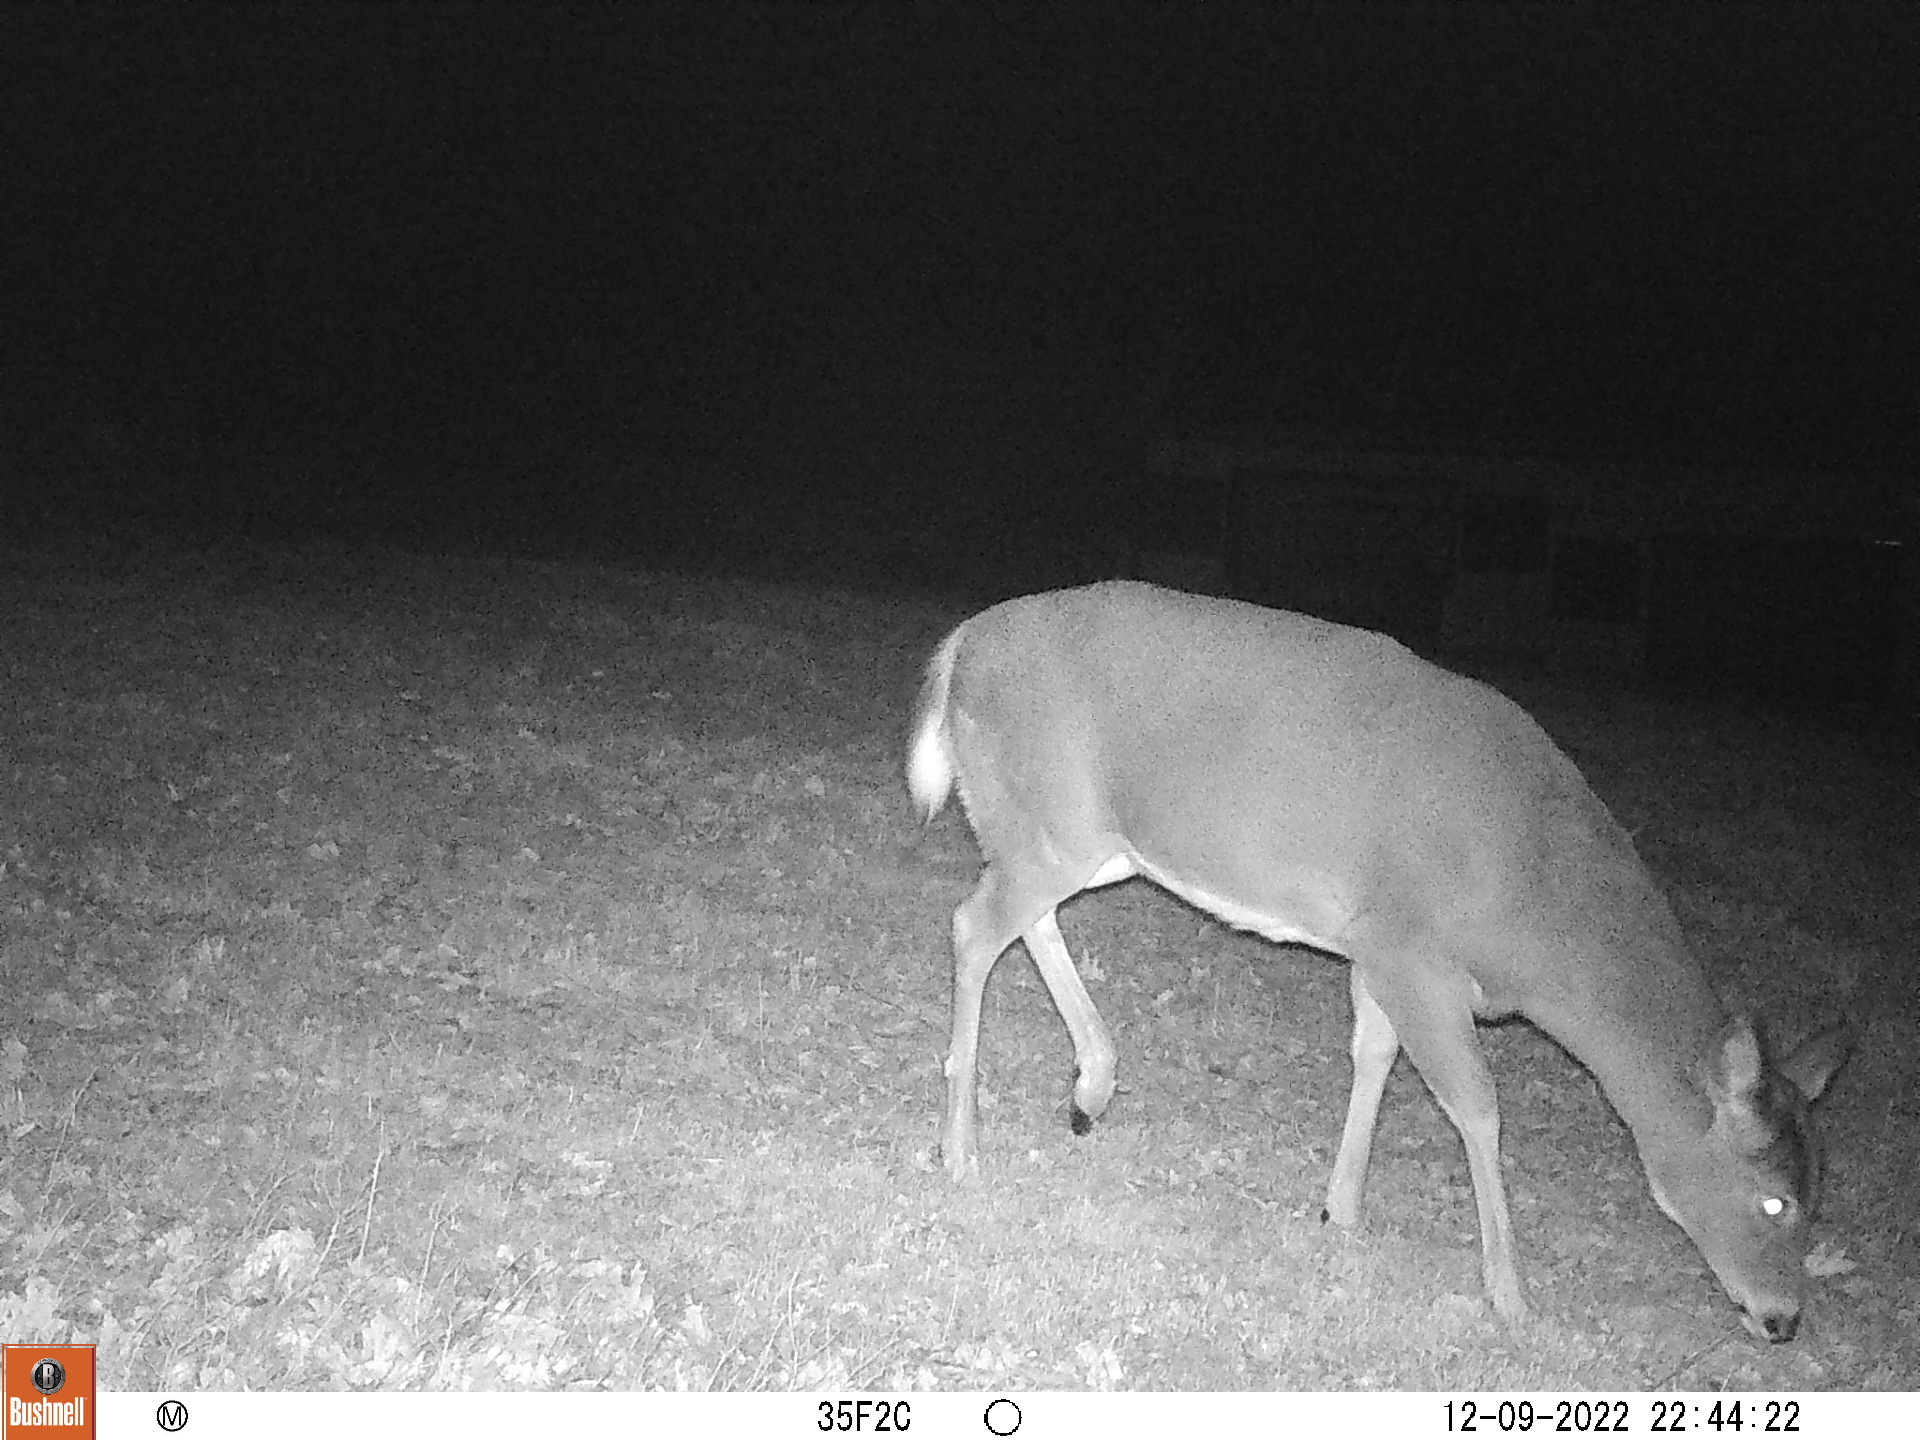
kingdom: Animalia
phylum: Chordata
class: Mammalia
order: Artiodactyla
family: Cervidae
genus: Odocoileus
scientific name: Odocoileus virginianus
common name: White-tailed deer
